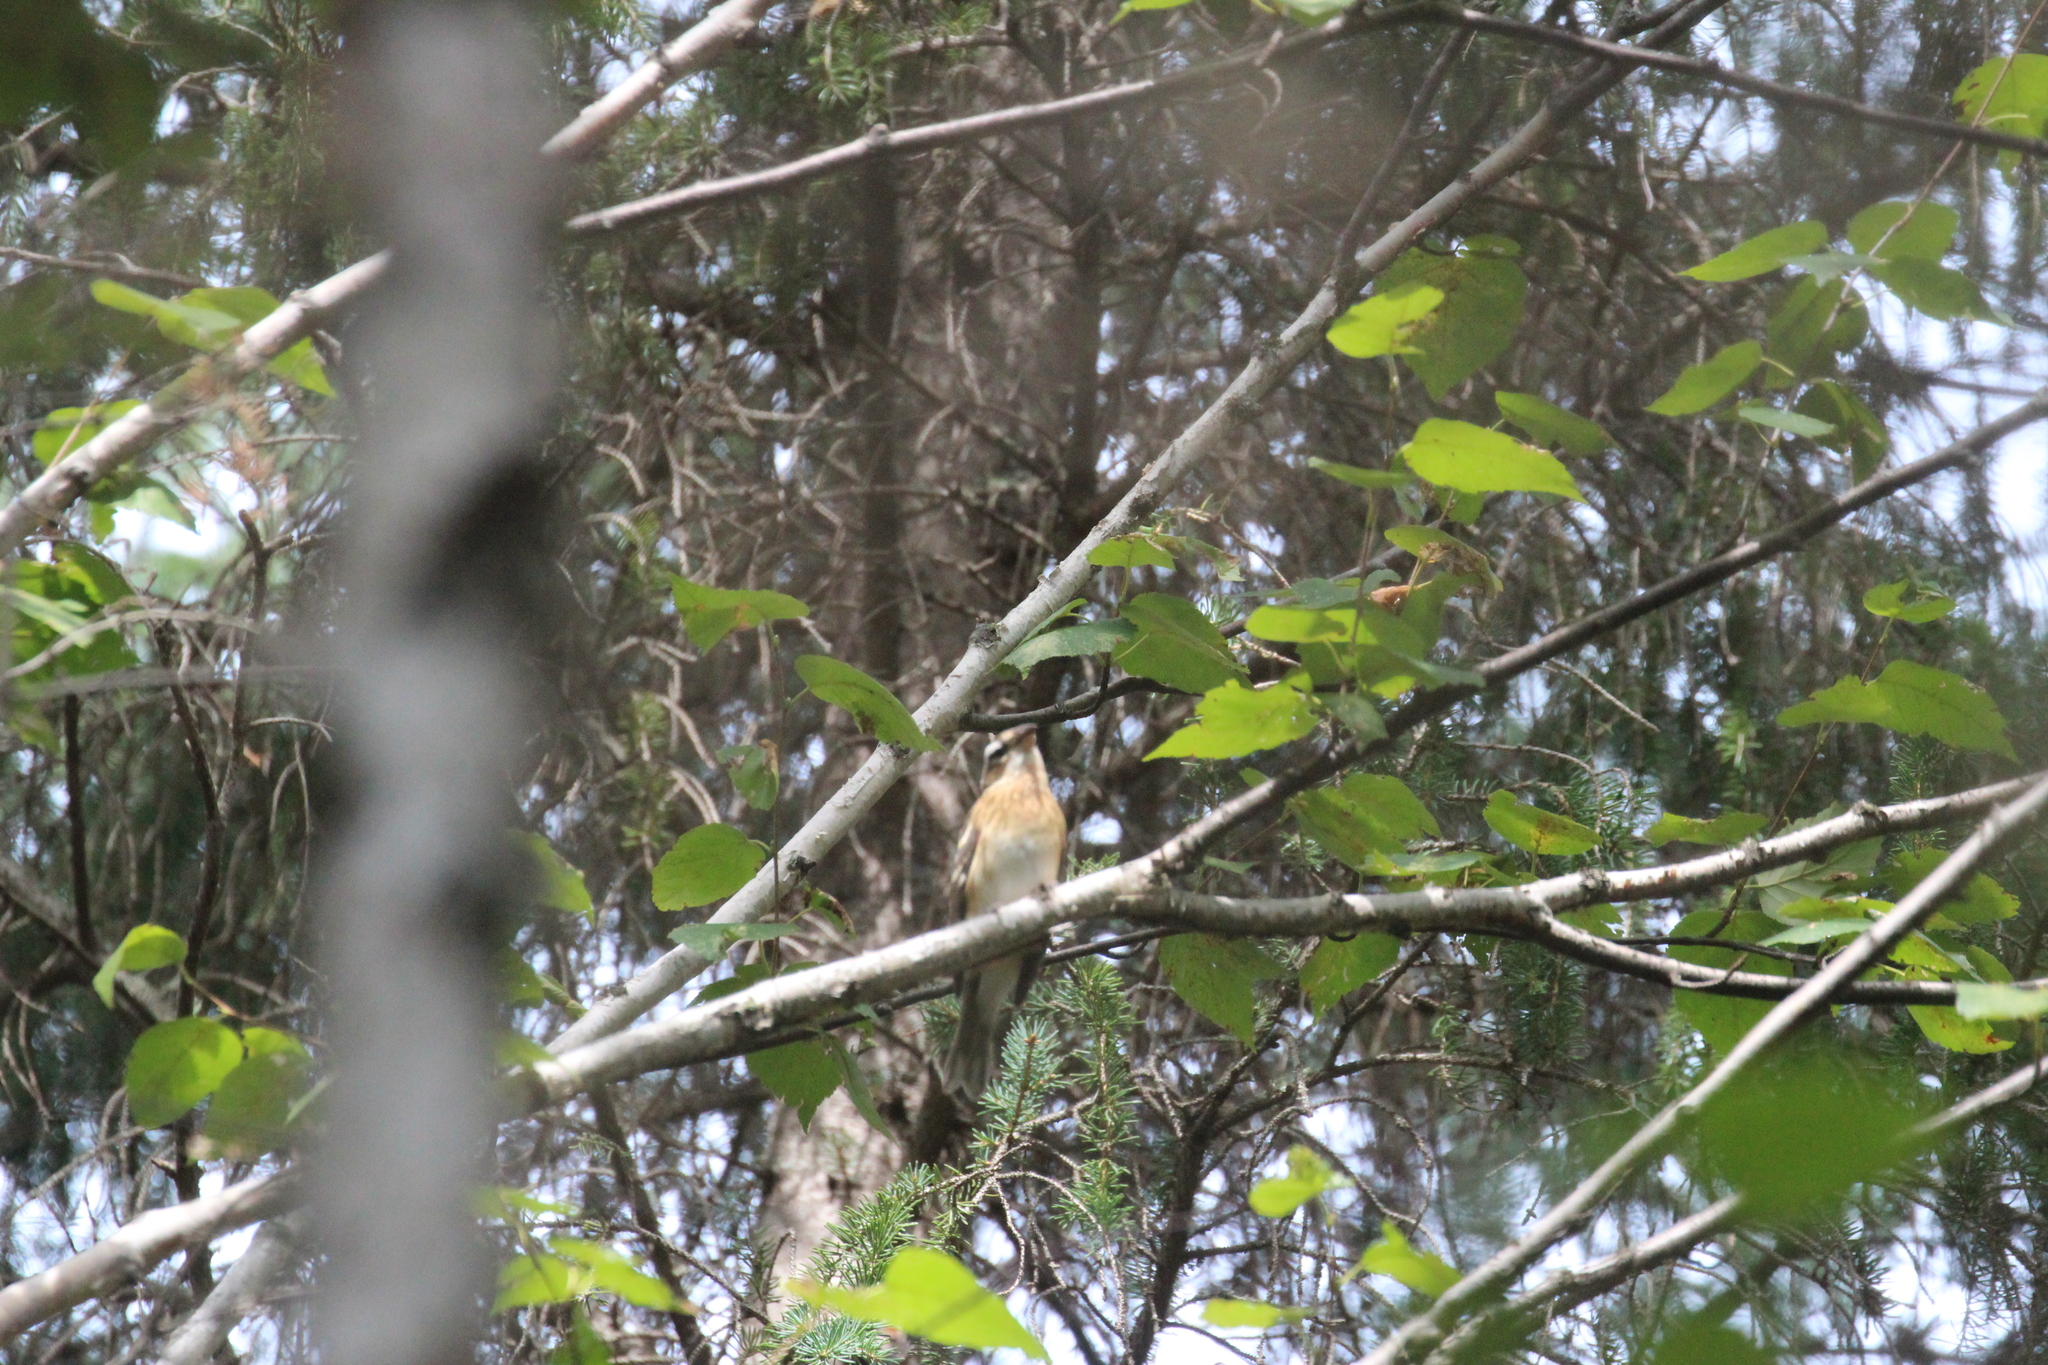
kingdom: Animalia
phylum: Chordata
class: Aves
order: Passeriformes
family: Cardinalidae
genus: Pheucticus
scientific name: Pheucticus ludovicianus
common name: Rose-breasted grosbeak
